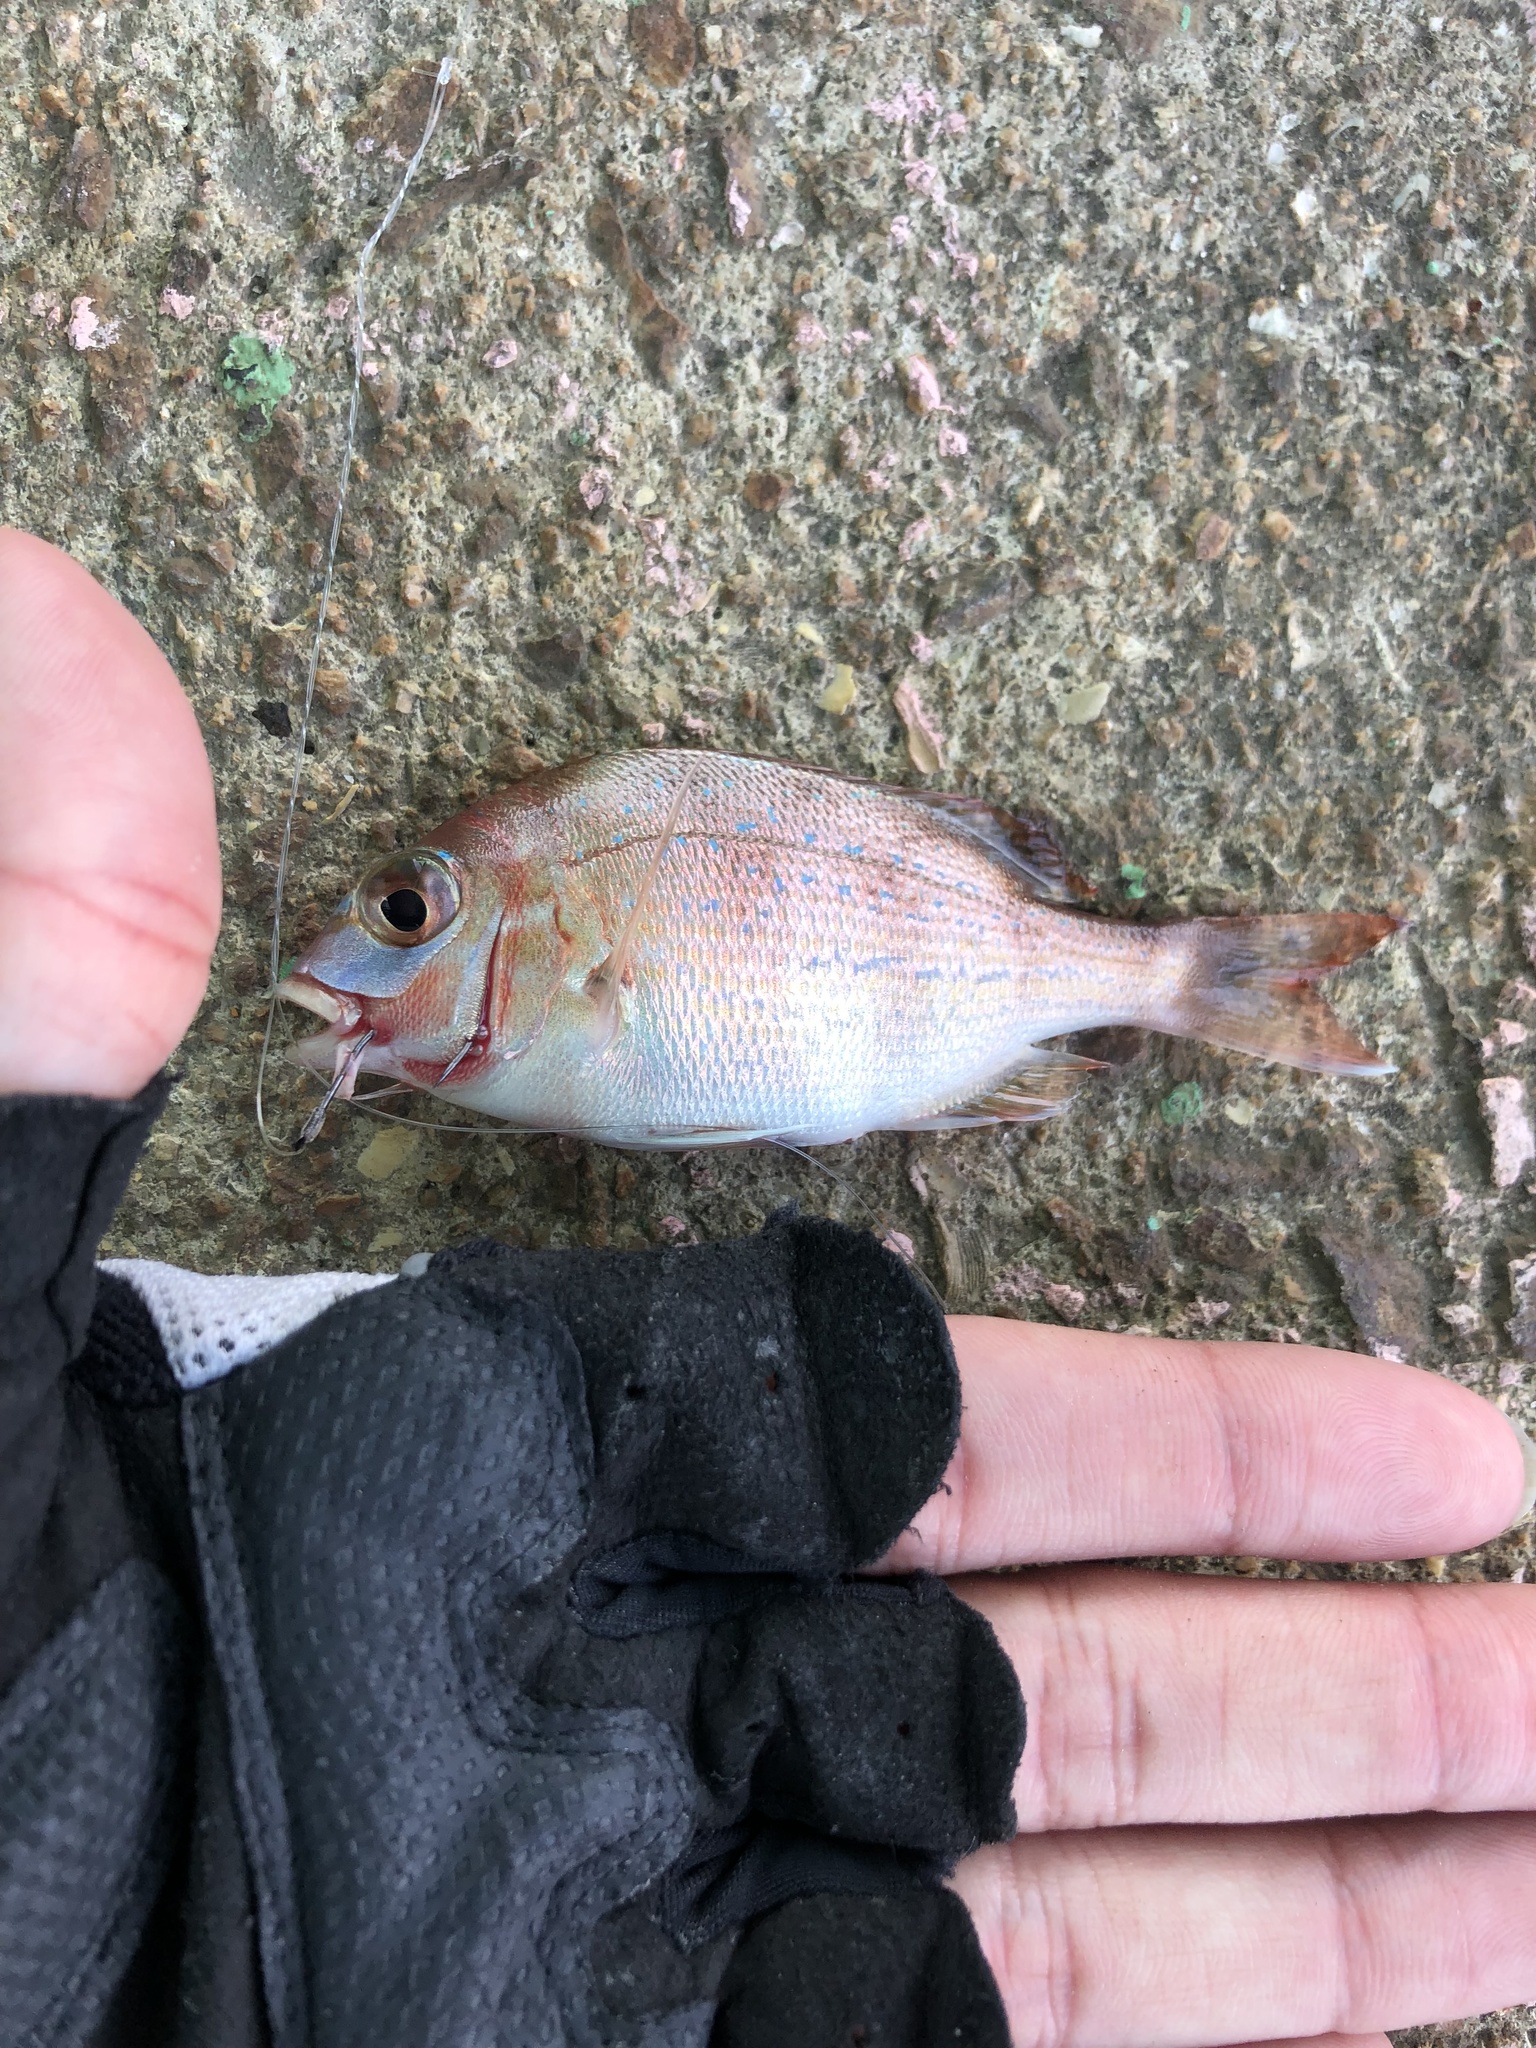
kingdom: Animalia
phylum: Chordata
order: Perciformes
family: Sparidae
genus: Pagrus
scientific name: Pagrus major
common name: Red sea bream
